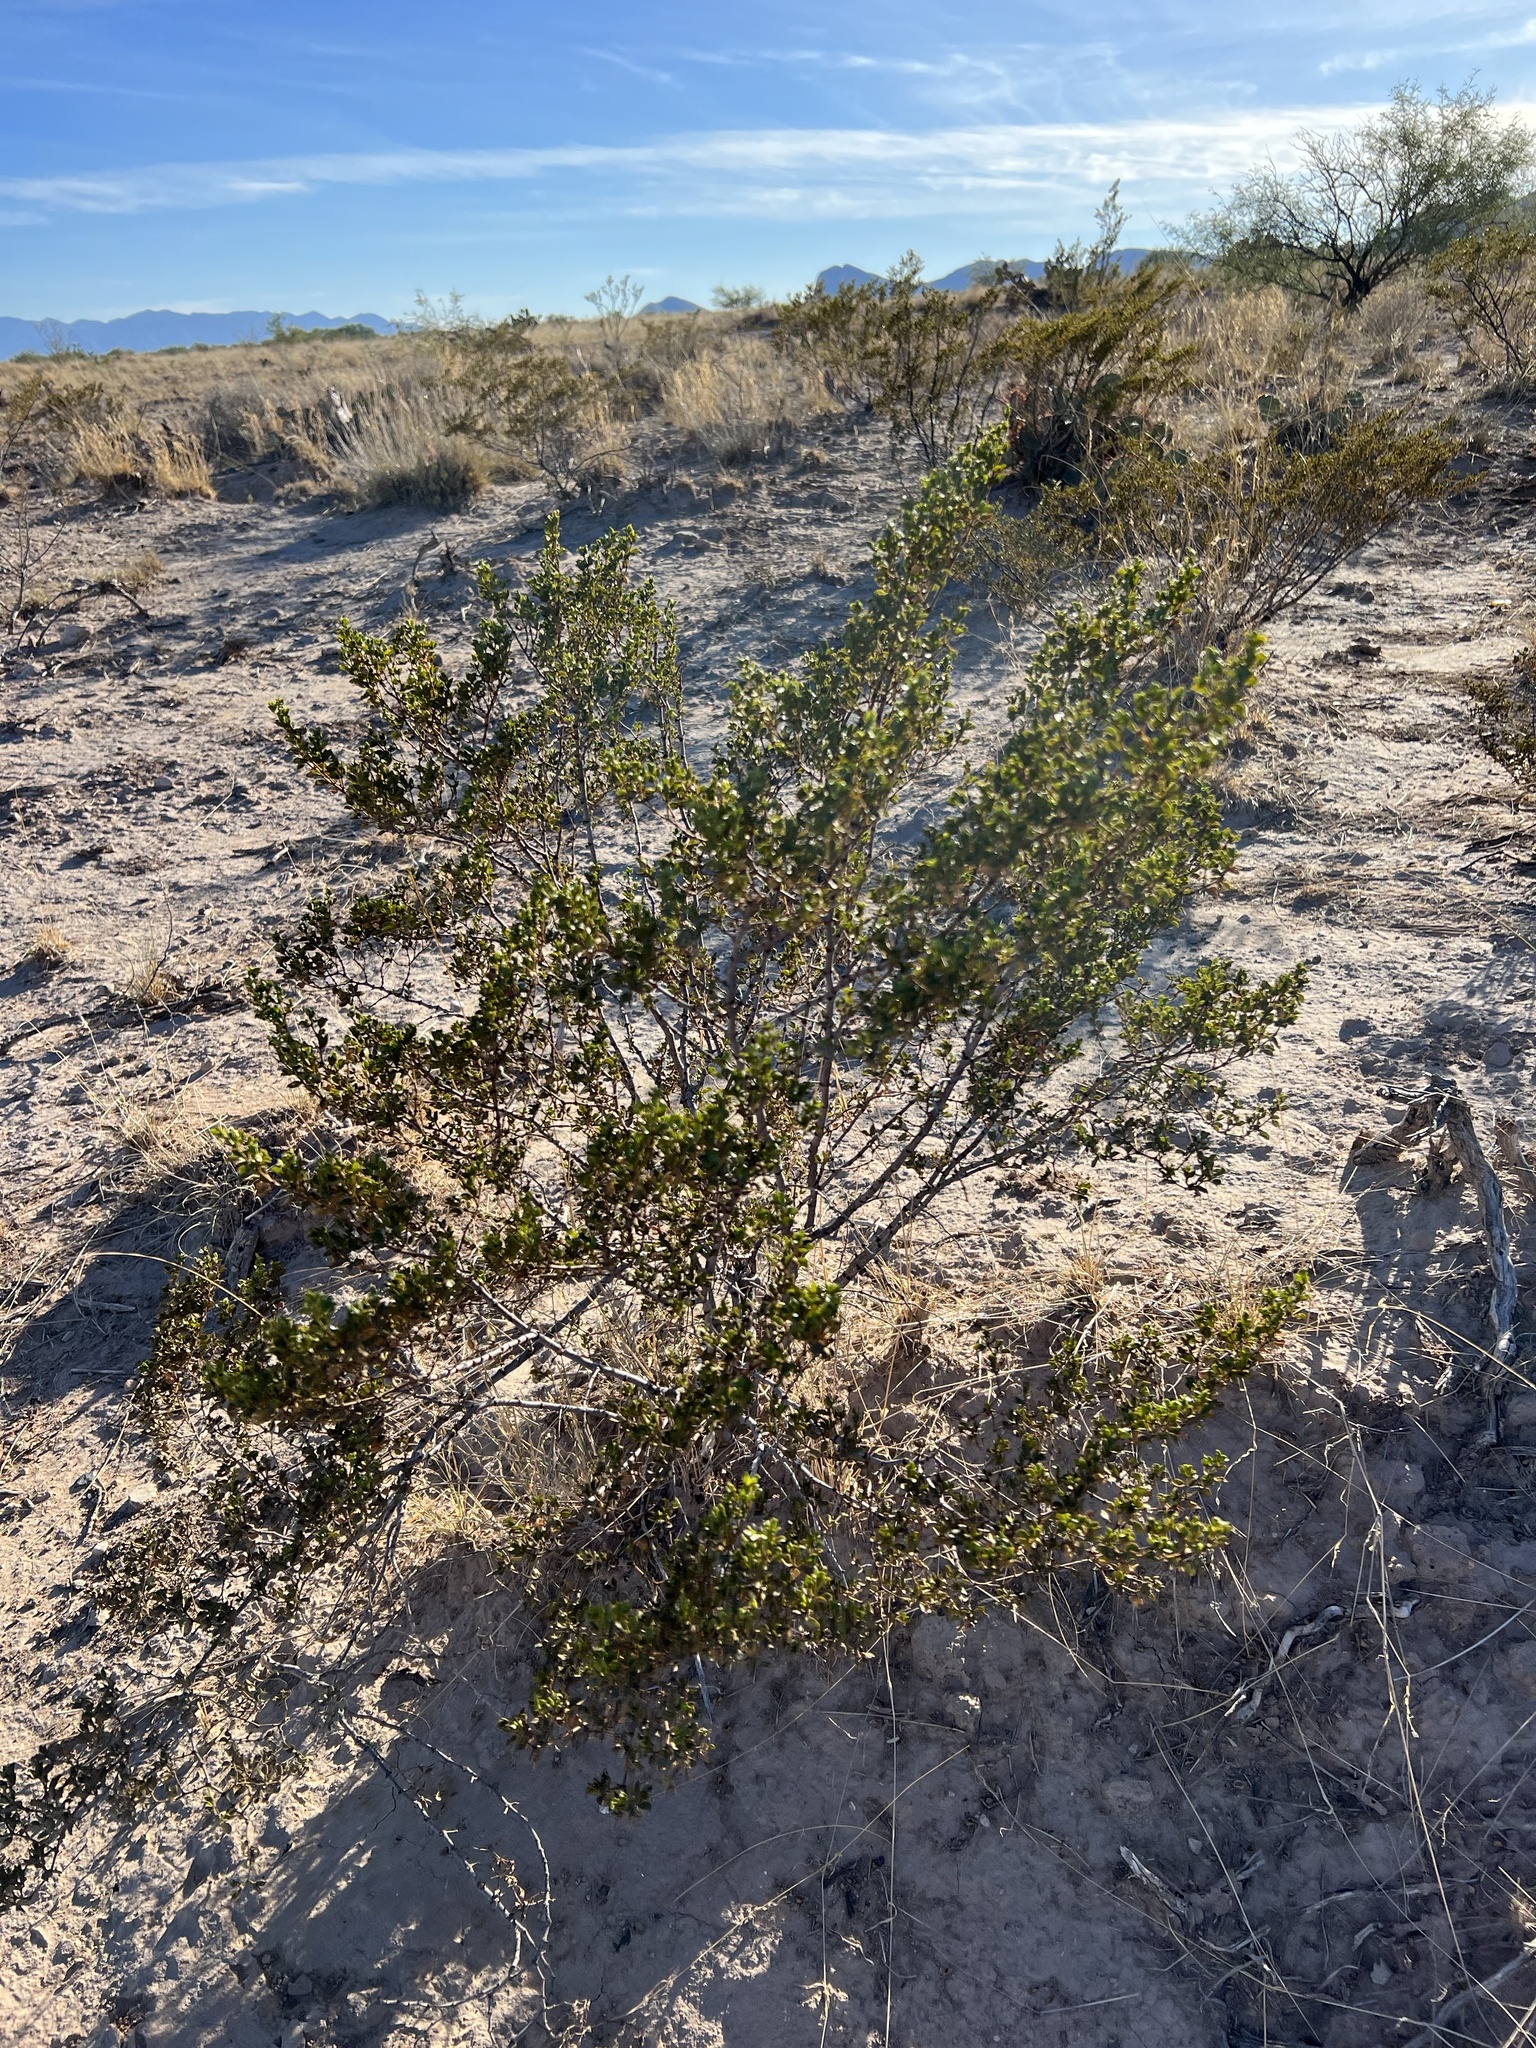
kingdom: Plantae
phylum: Tracheophyta
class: Magnoliopsida
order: Zygophyllales
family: Zygophyllaceae
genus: Larrea
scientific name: Larrea tridentata
